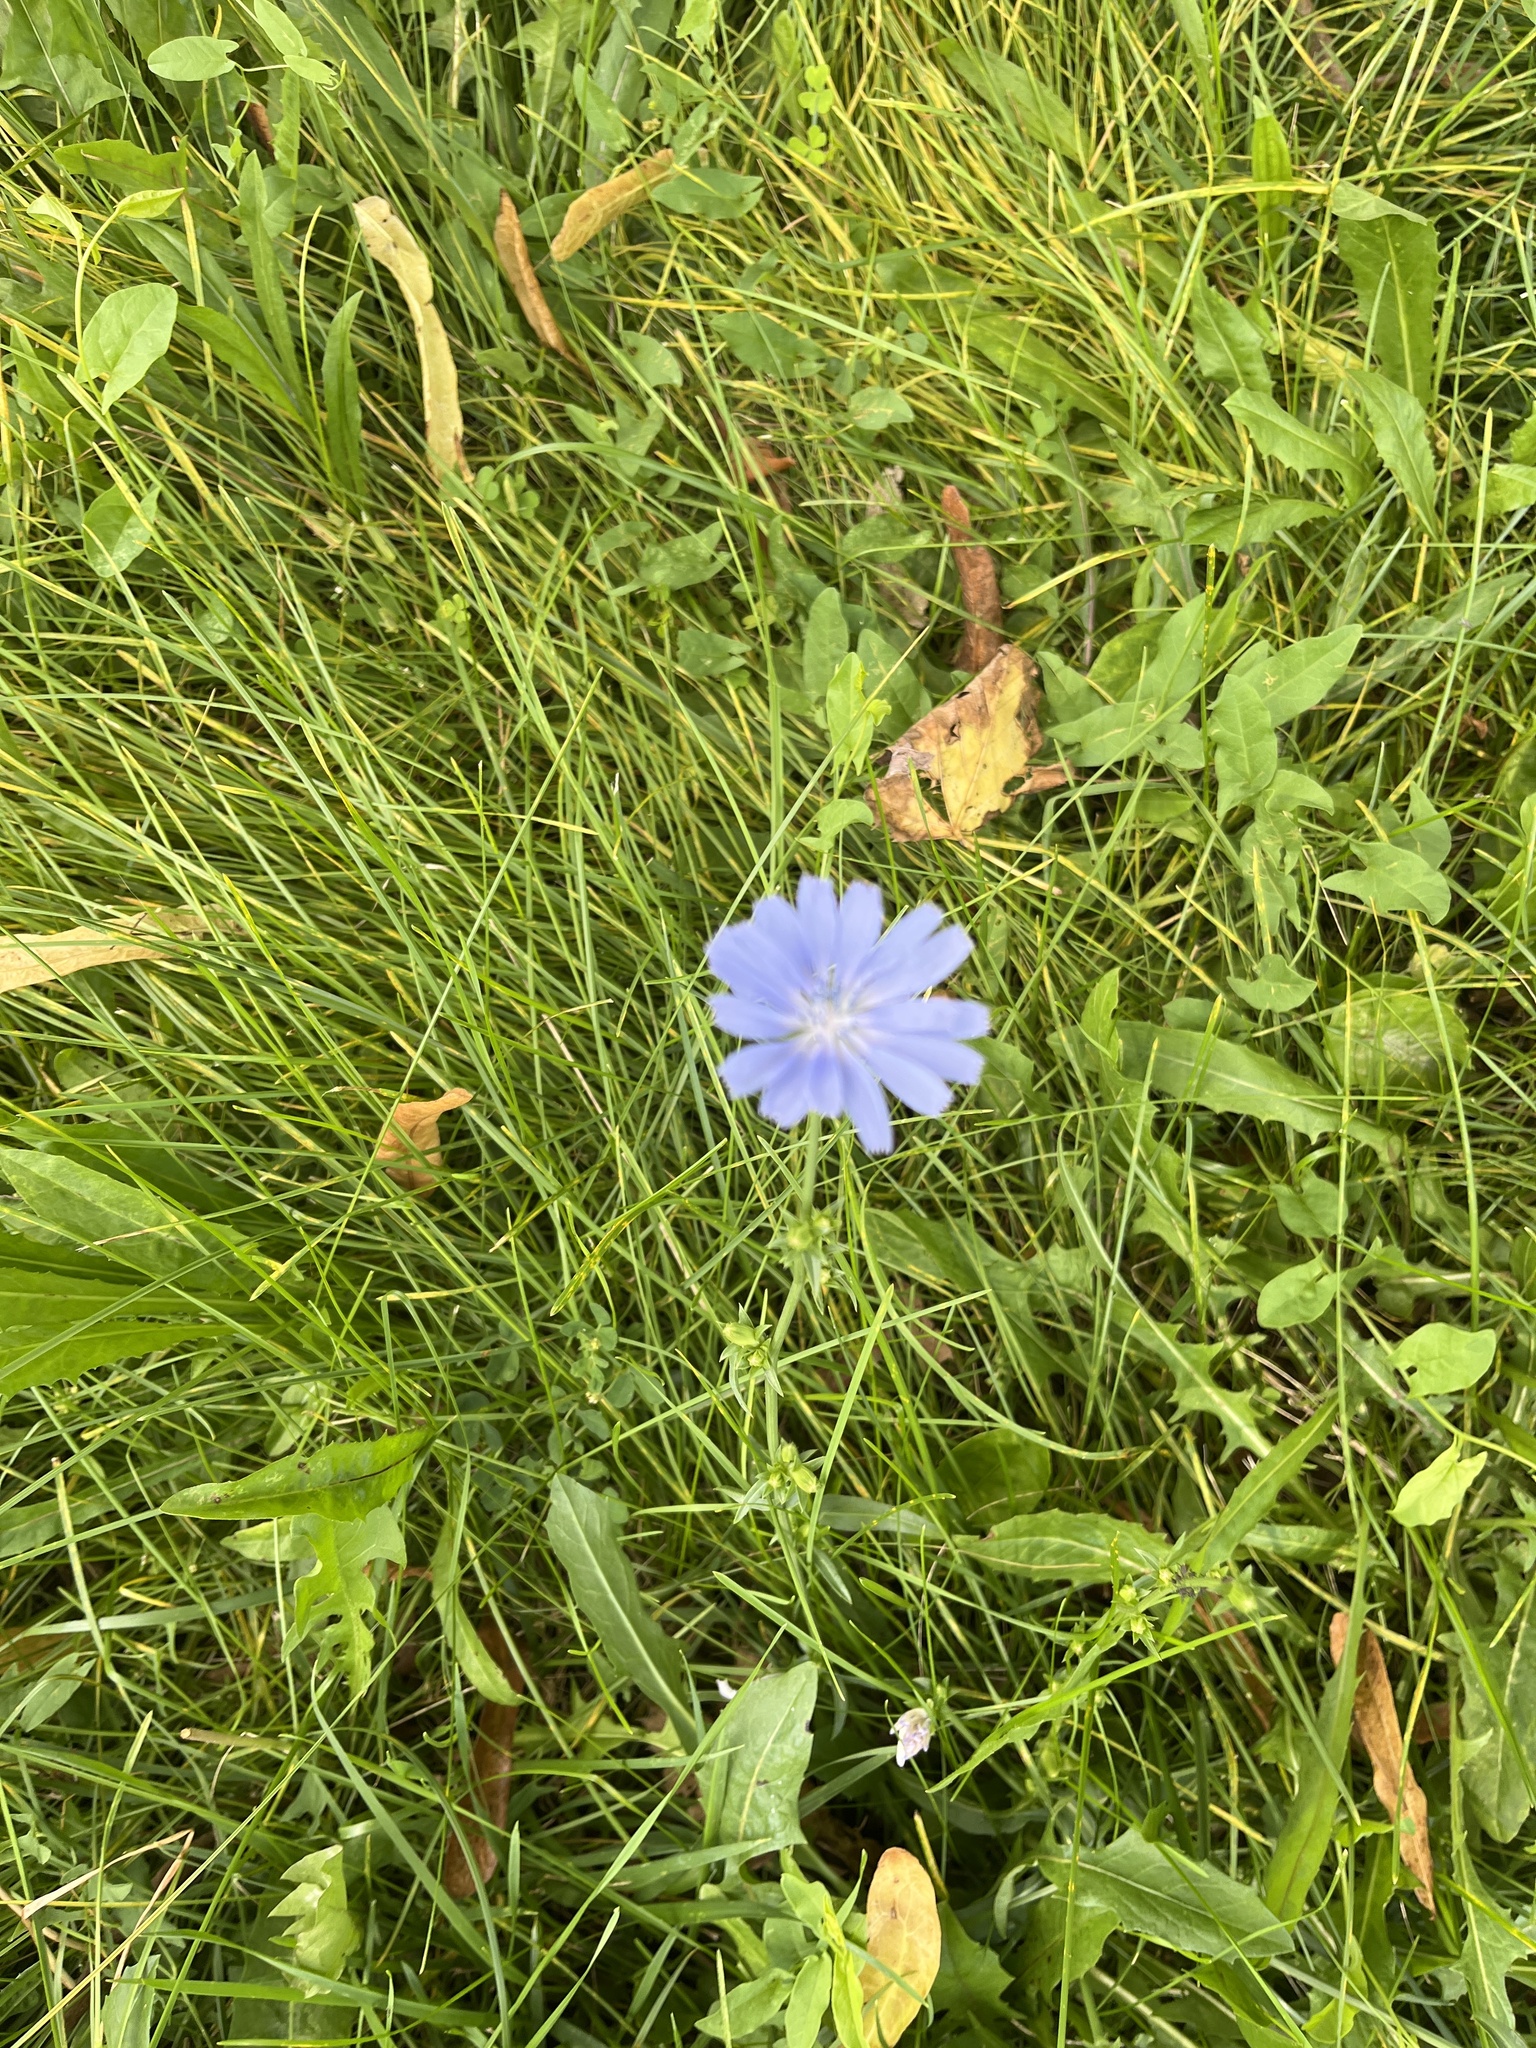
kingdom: Plantae
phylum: Tracheophyta
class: Magnoliopsida
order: Asterales
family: Asteraceae
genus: Cichorium
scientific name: Cichorium intybus
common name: Chicory
